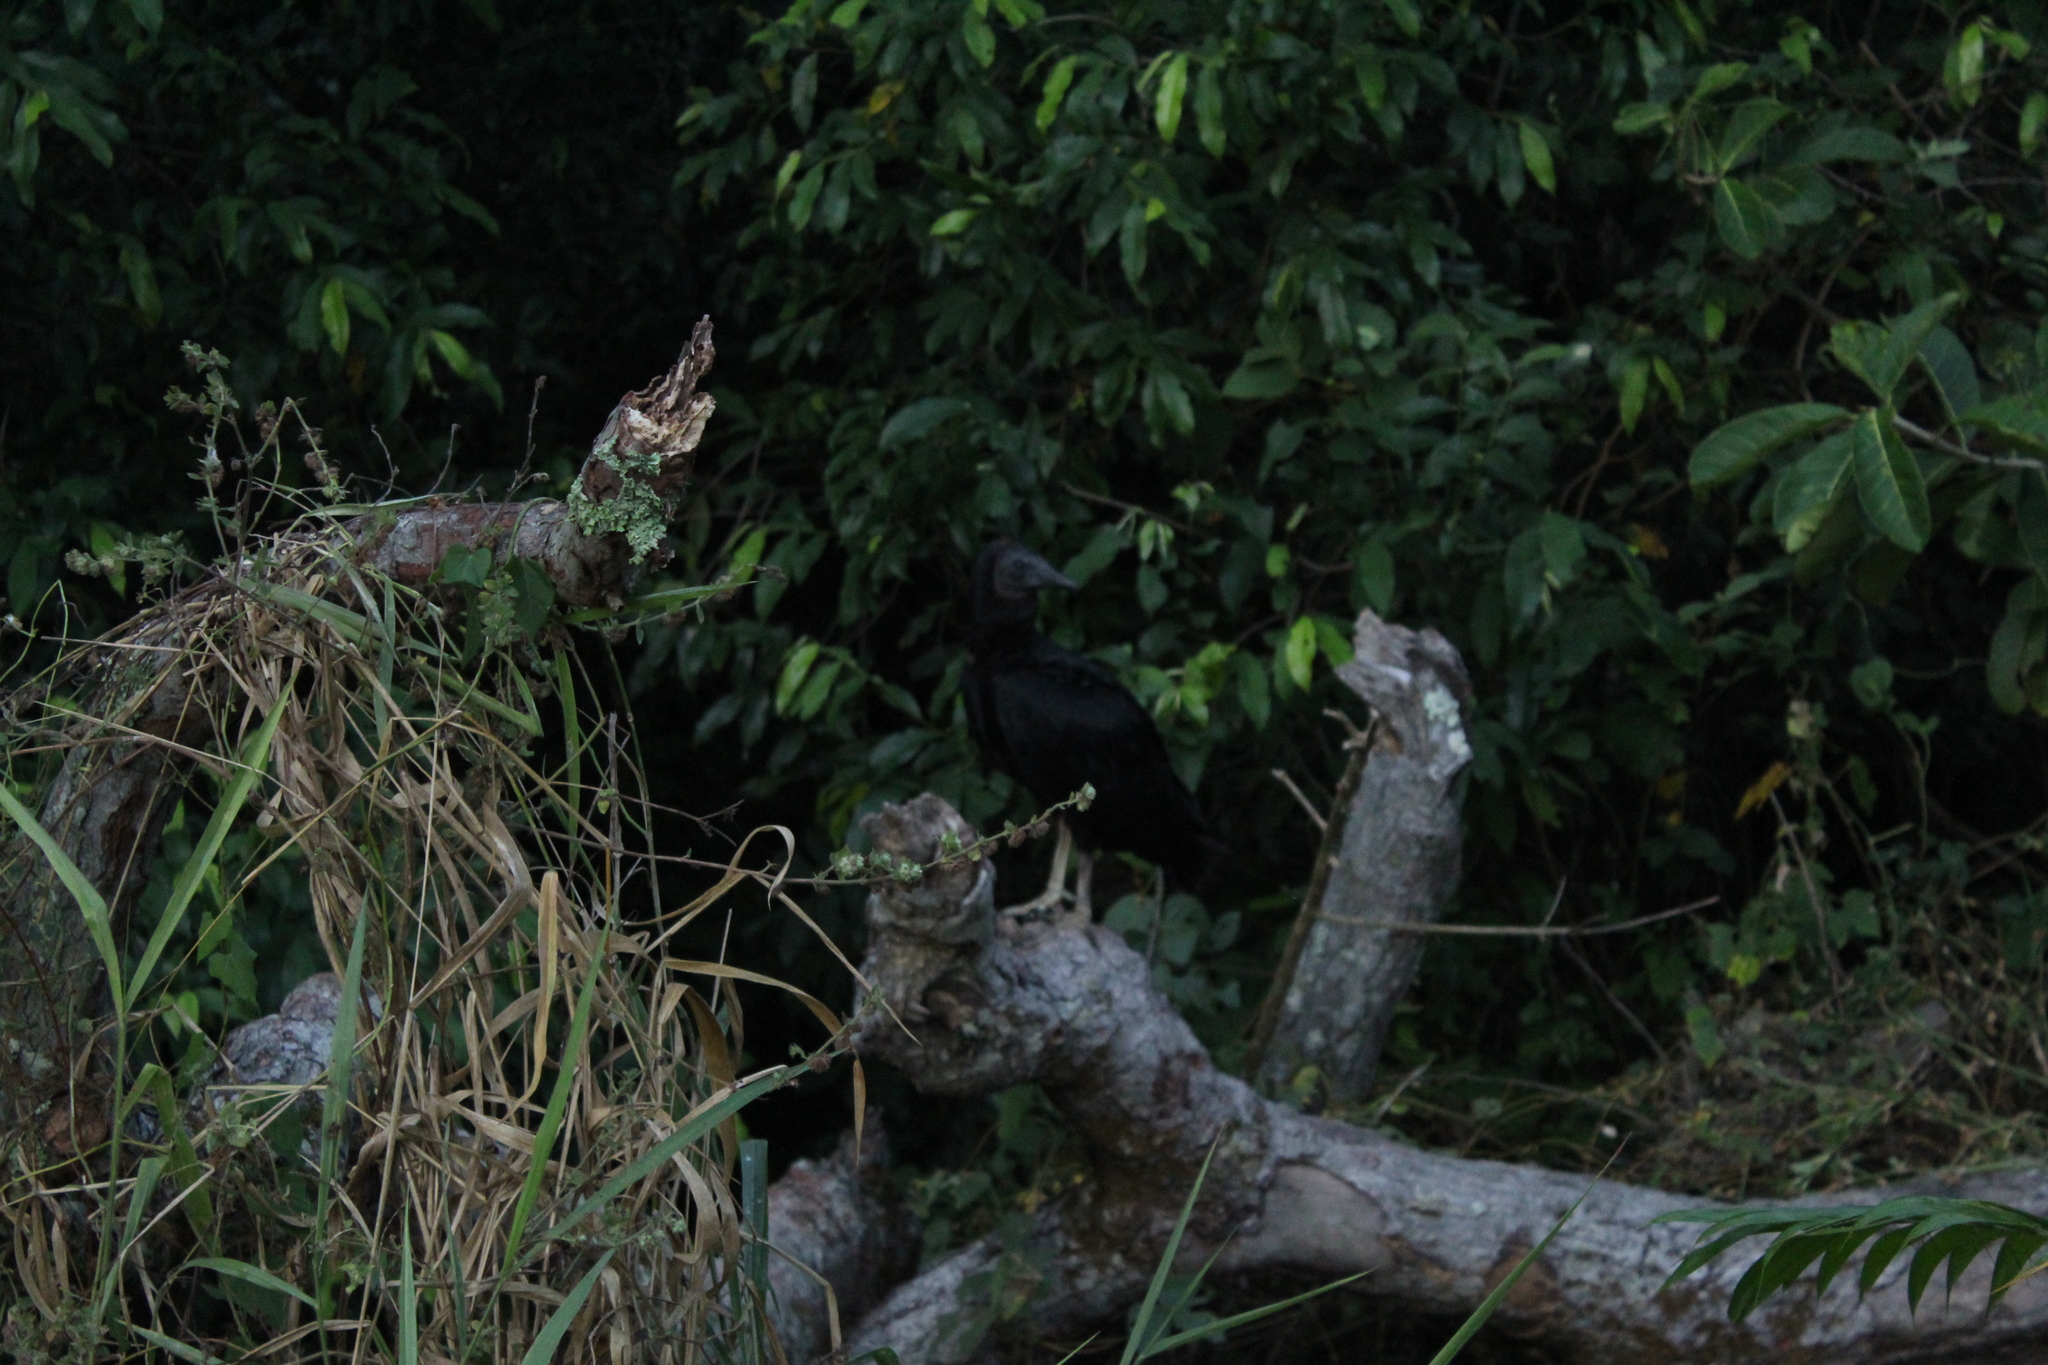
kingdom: Animalia
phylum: Chordata
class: Aves
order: Accipitriformes
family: Cathartidae
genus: Coragyps
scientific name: Coragyps atratus
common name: Black vulture
